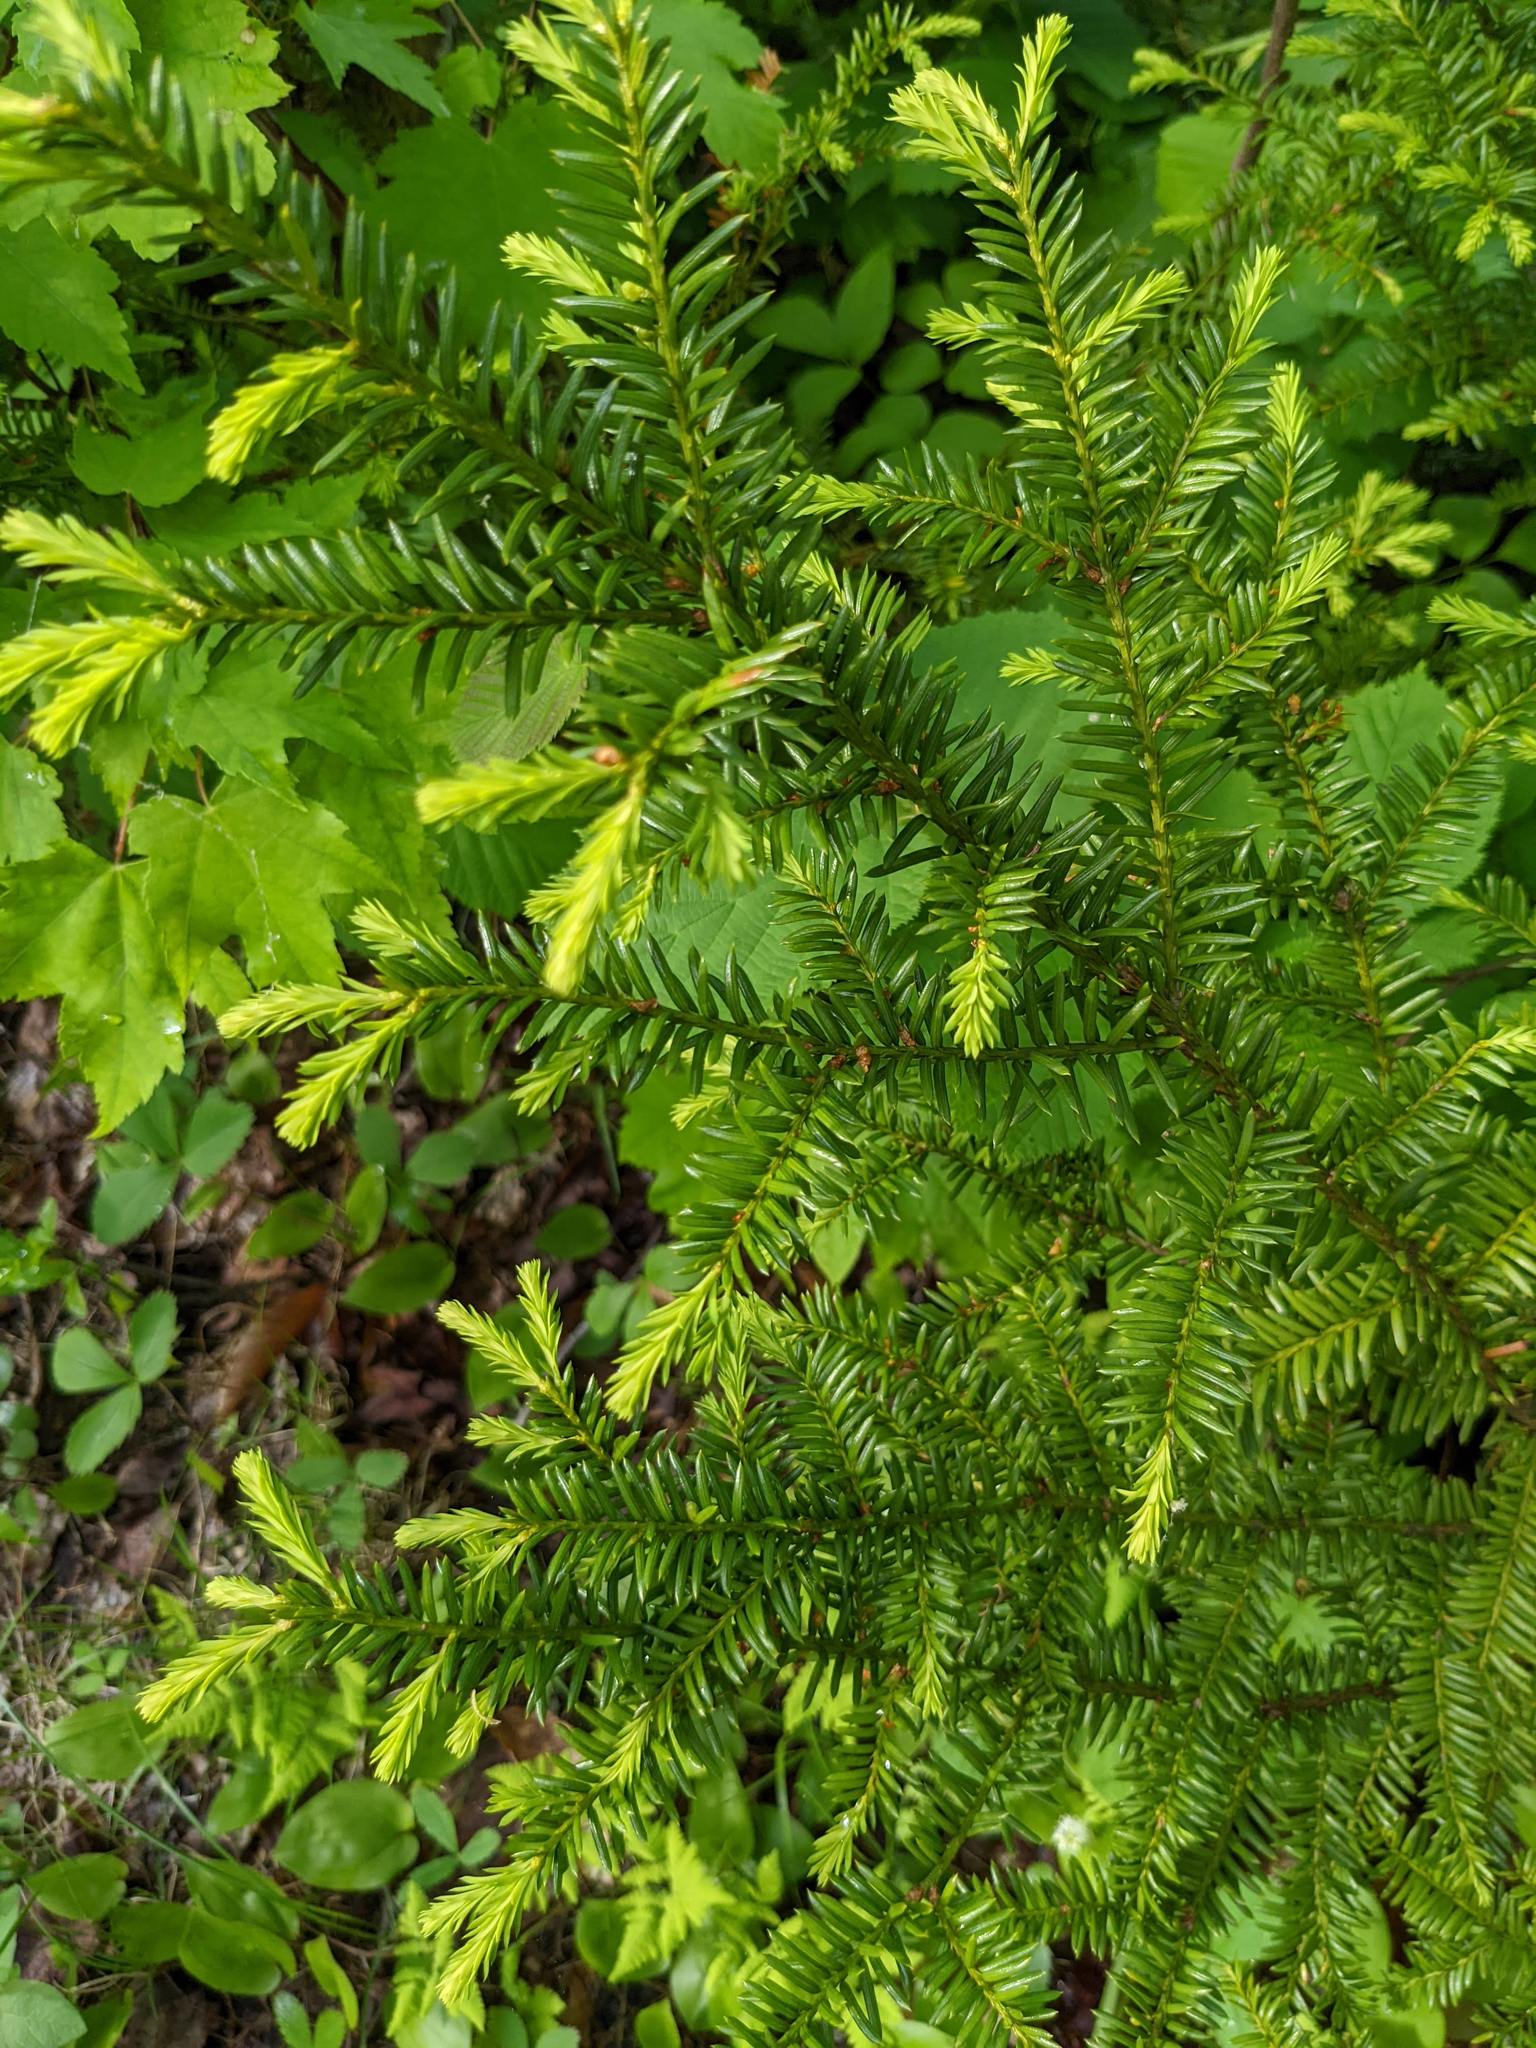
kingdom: Plantae
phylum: Tracheophyta
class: Pinopsida
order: Pinales
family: Taxaceae
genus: Taxus
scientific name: Taxus canadensis
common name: American yew
